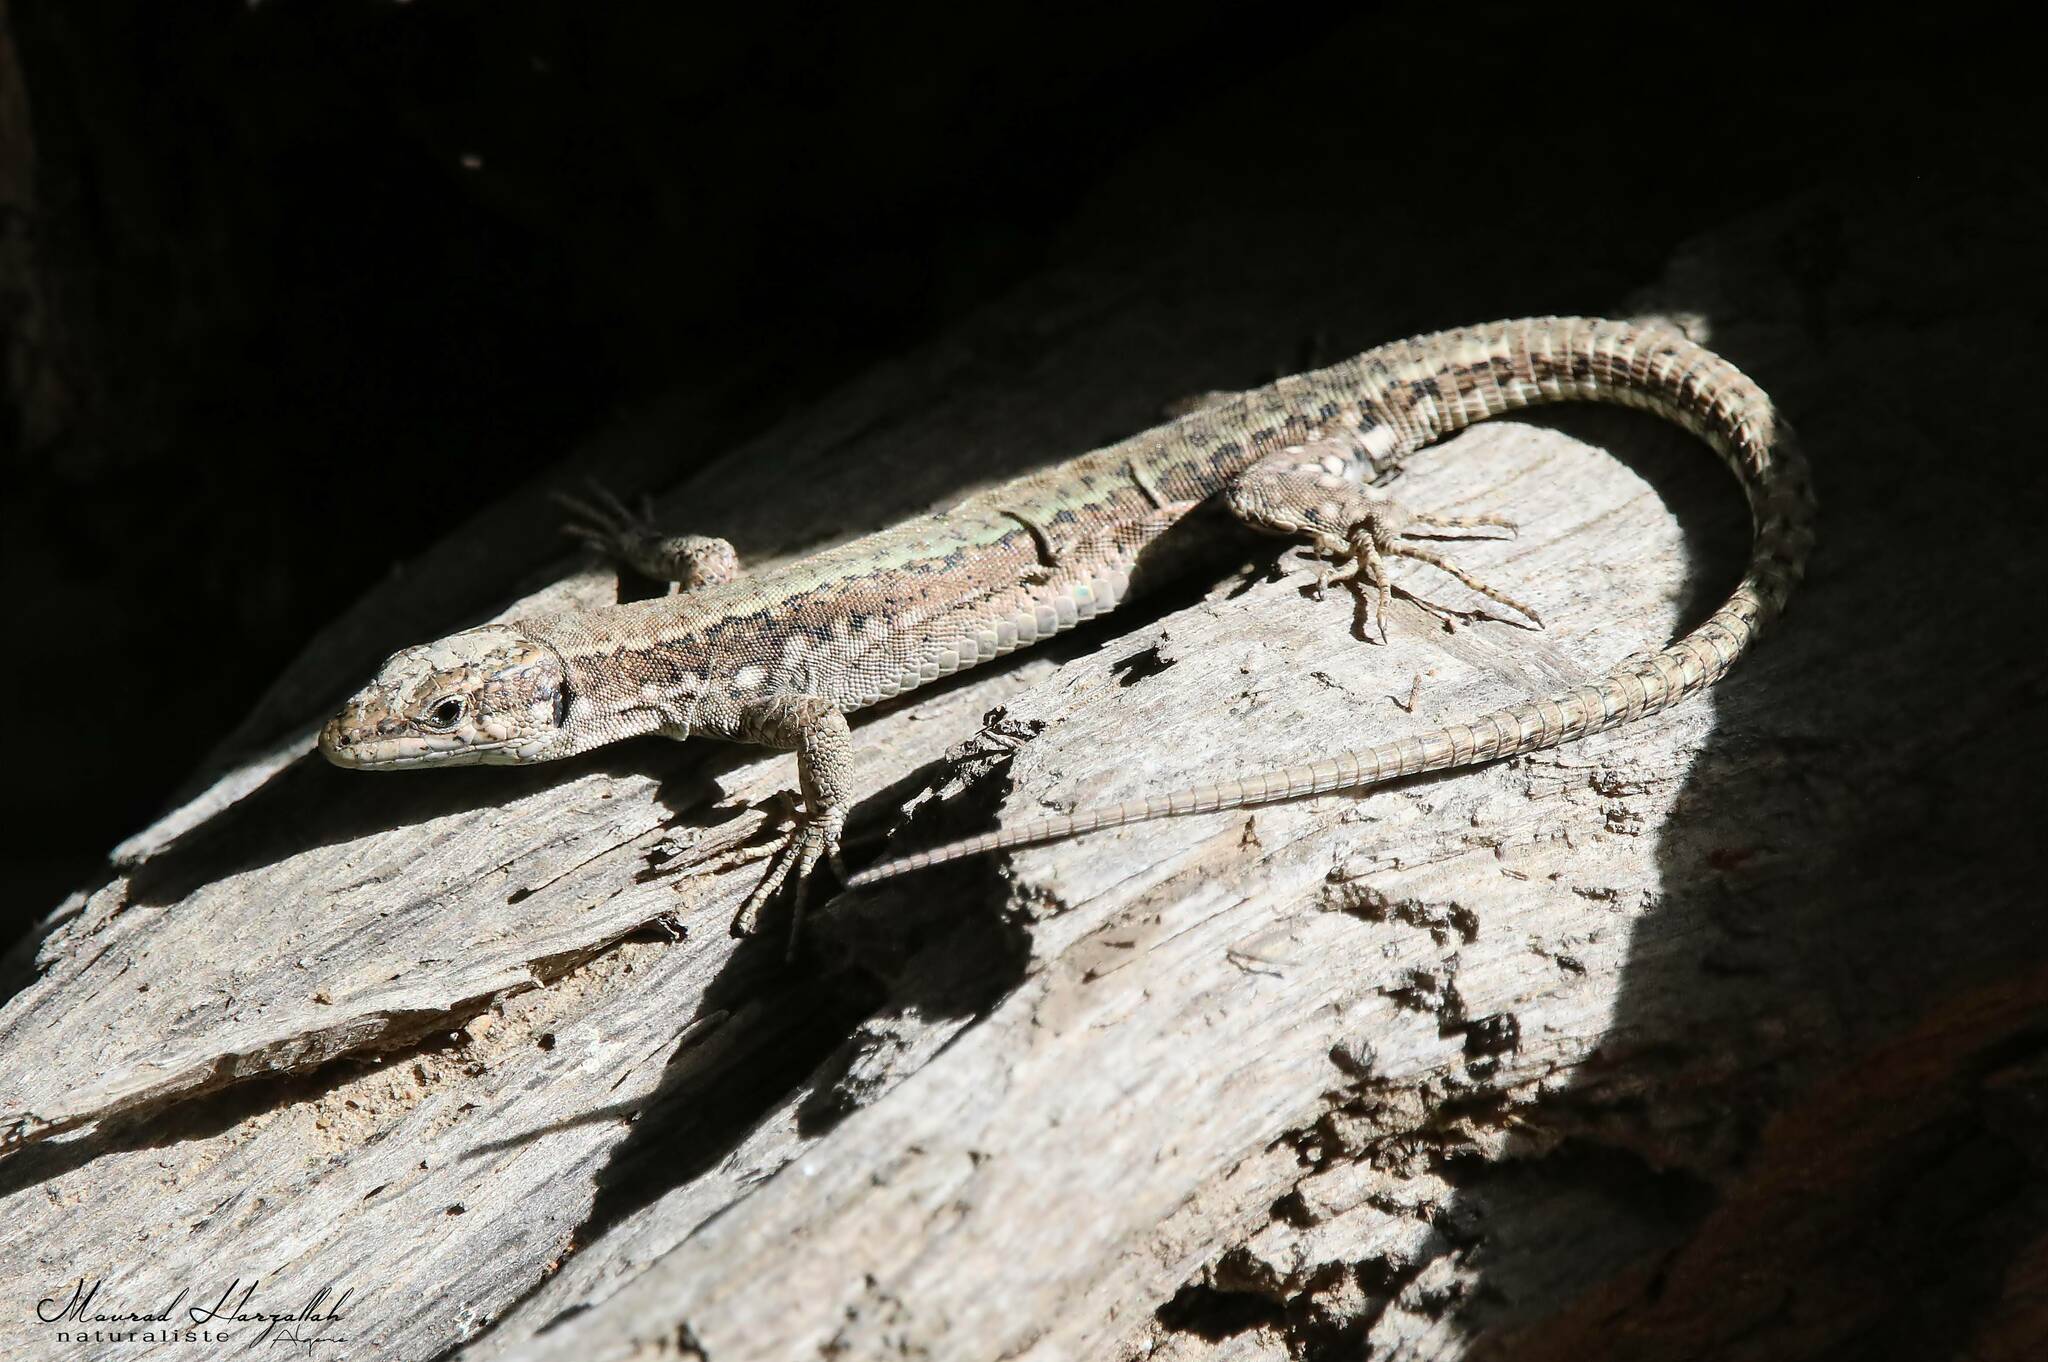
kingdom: Animalia
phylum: Chordata
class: Squamata
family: Lacertidae
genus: Podarcis
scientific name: Podarcis vaucheri
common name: Vaucher's wall lizard
